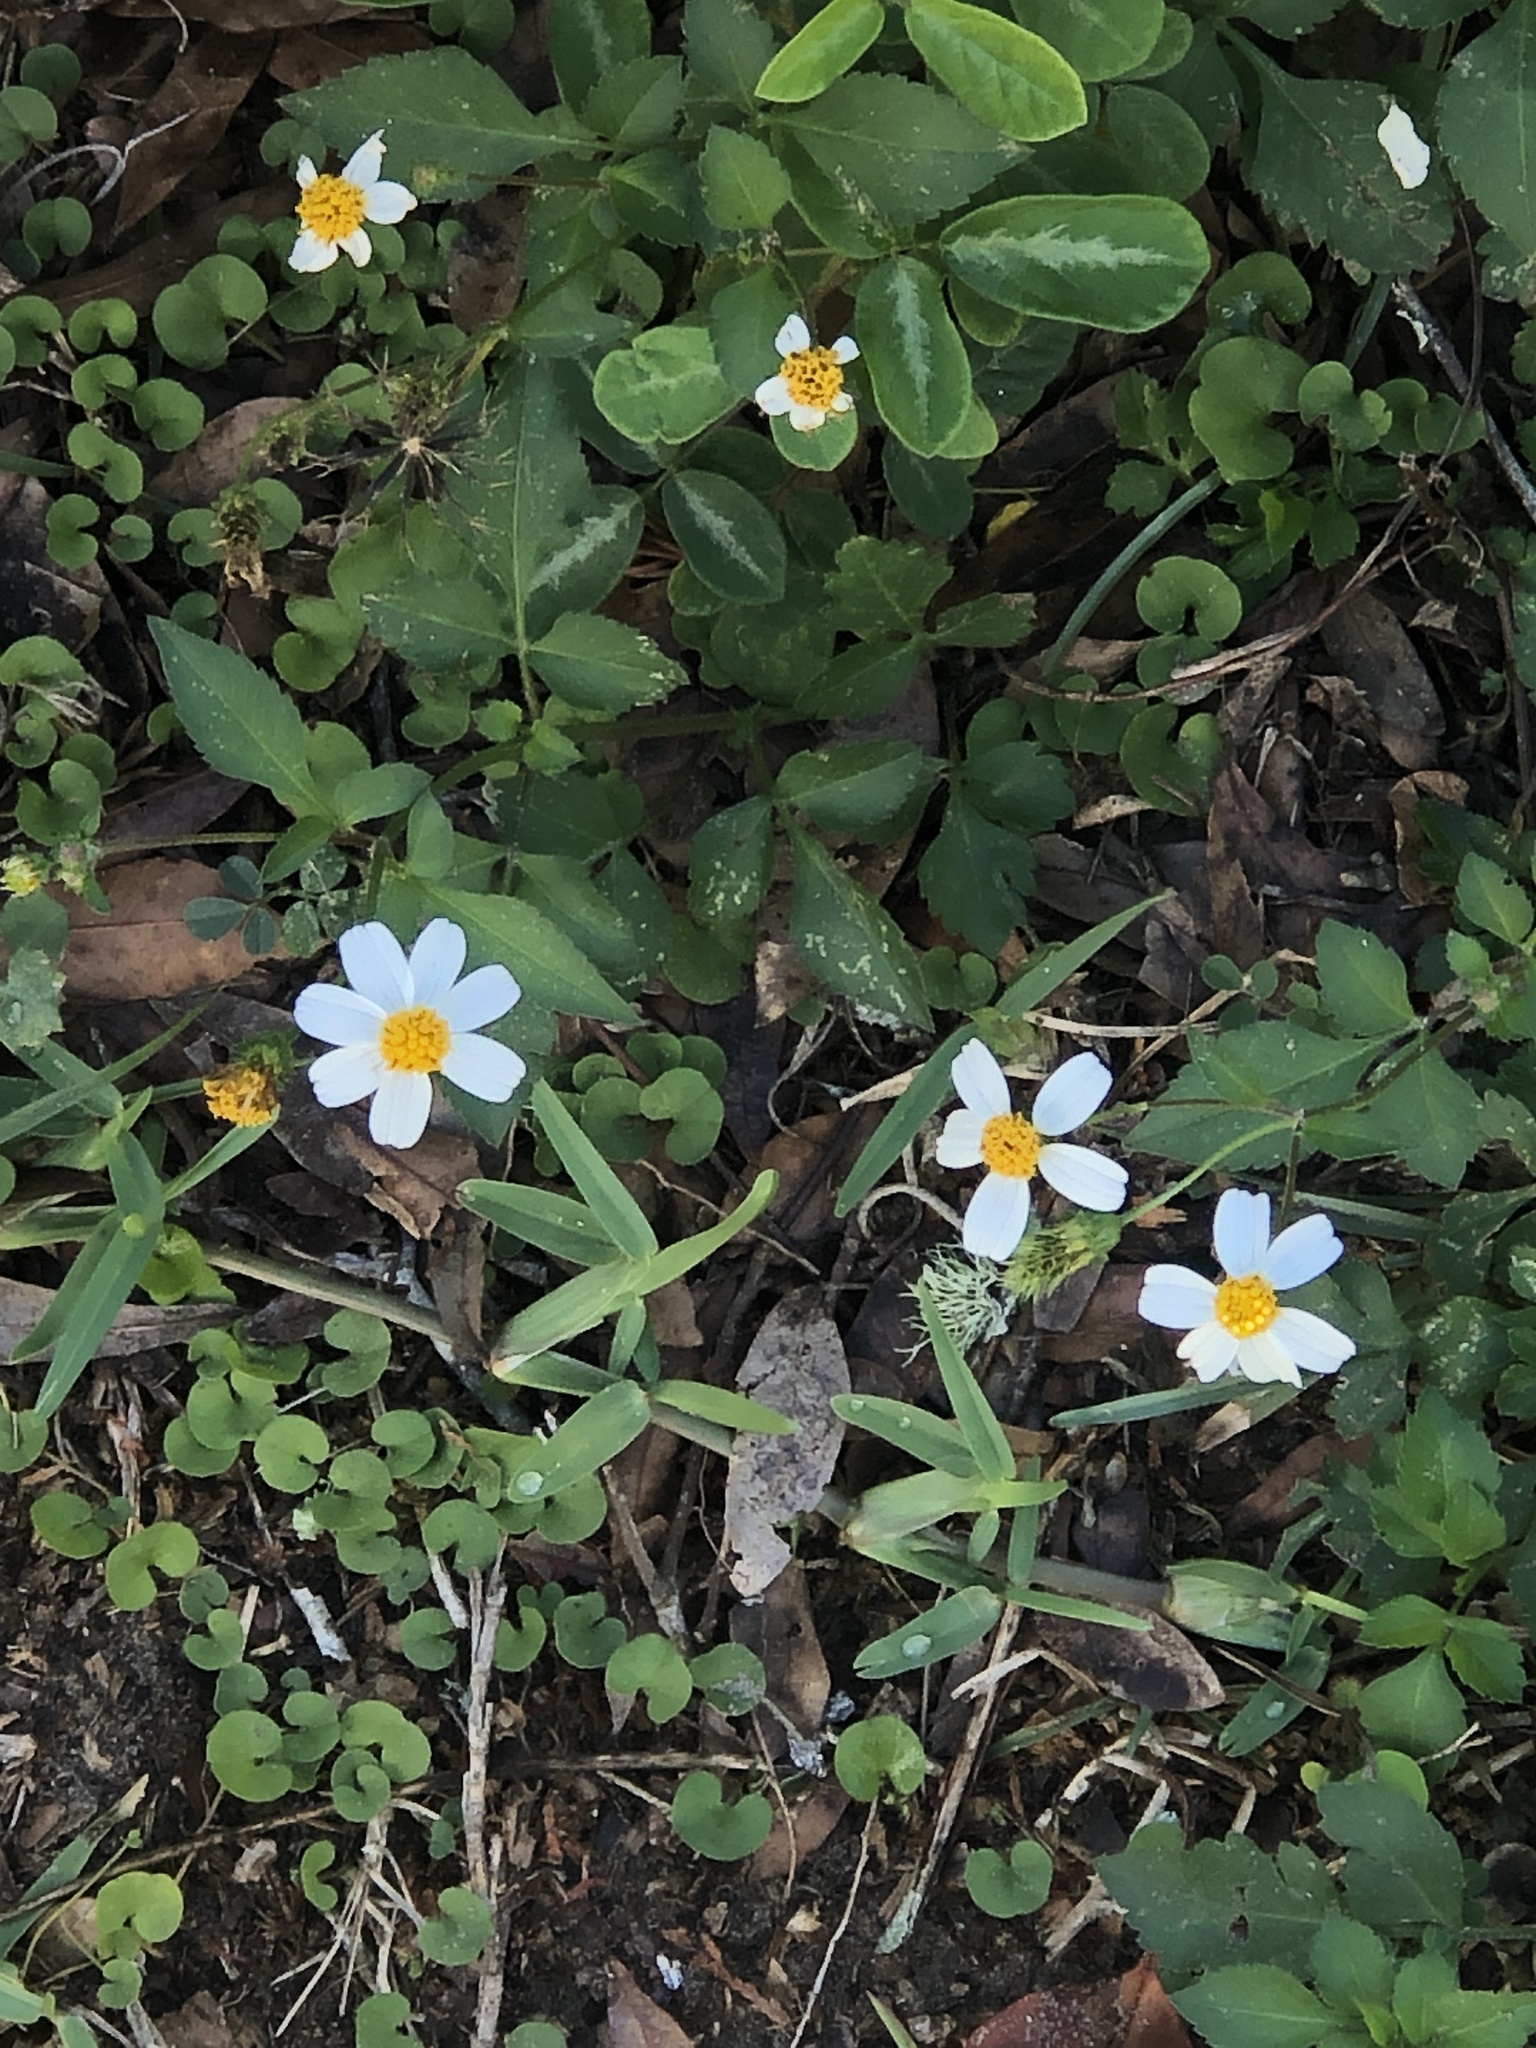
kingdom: Plantae
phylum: Tracheophyta
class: Magnoliopsida
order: Asterales
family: Asteraceae
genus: Bidens
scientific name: Bidens alba
